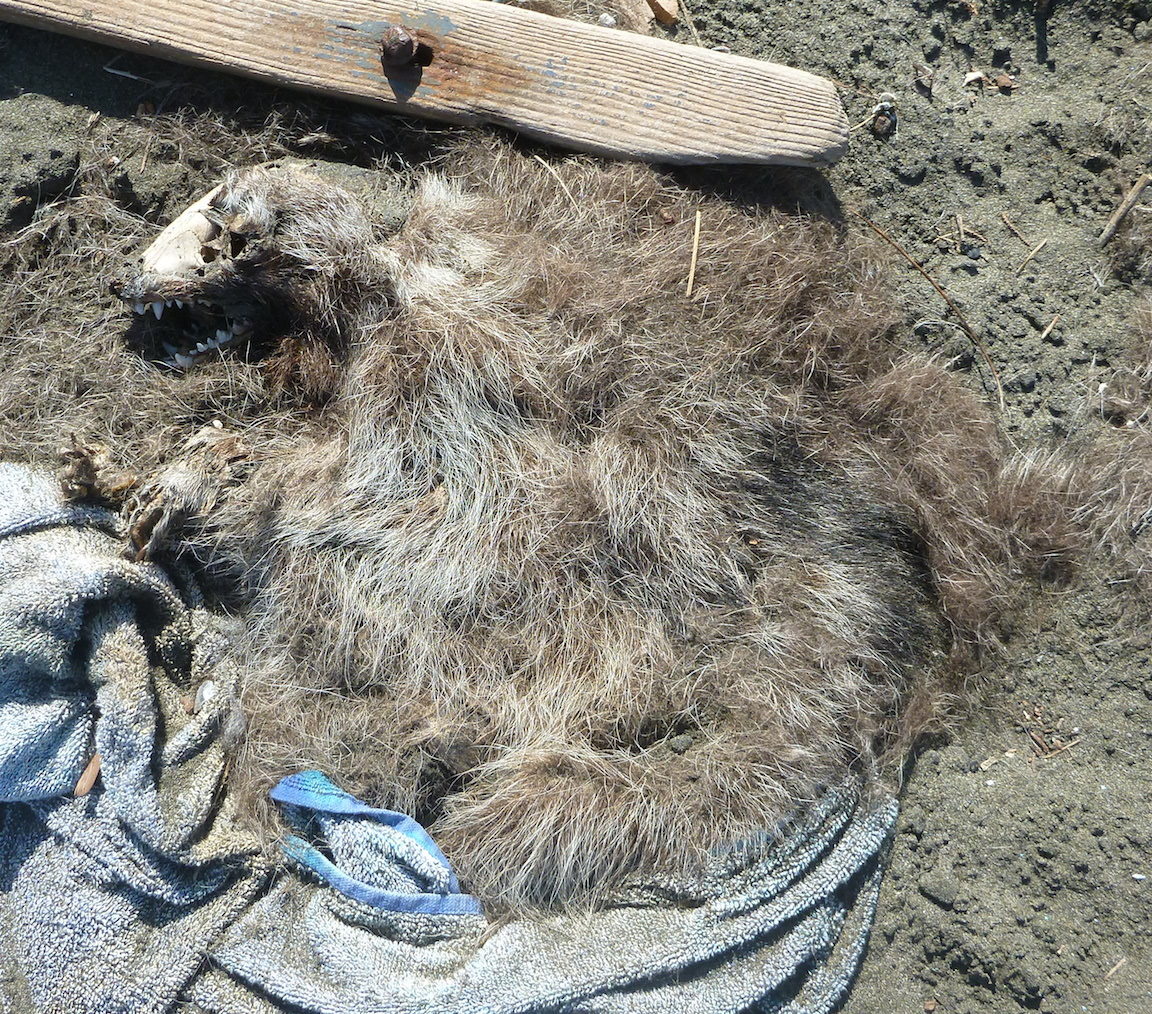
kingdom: Animalia
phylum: Chordata
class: Mammalia
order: Carnivora
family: Procyonidae
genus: Procyon
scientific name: Procyon lotor
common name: Raccoon
